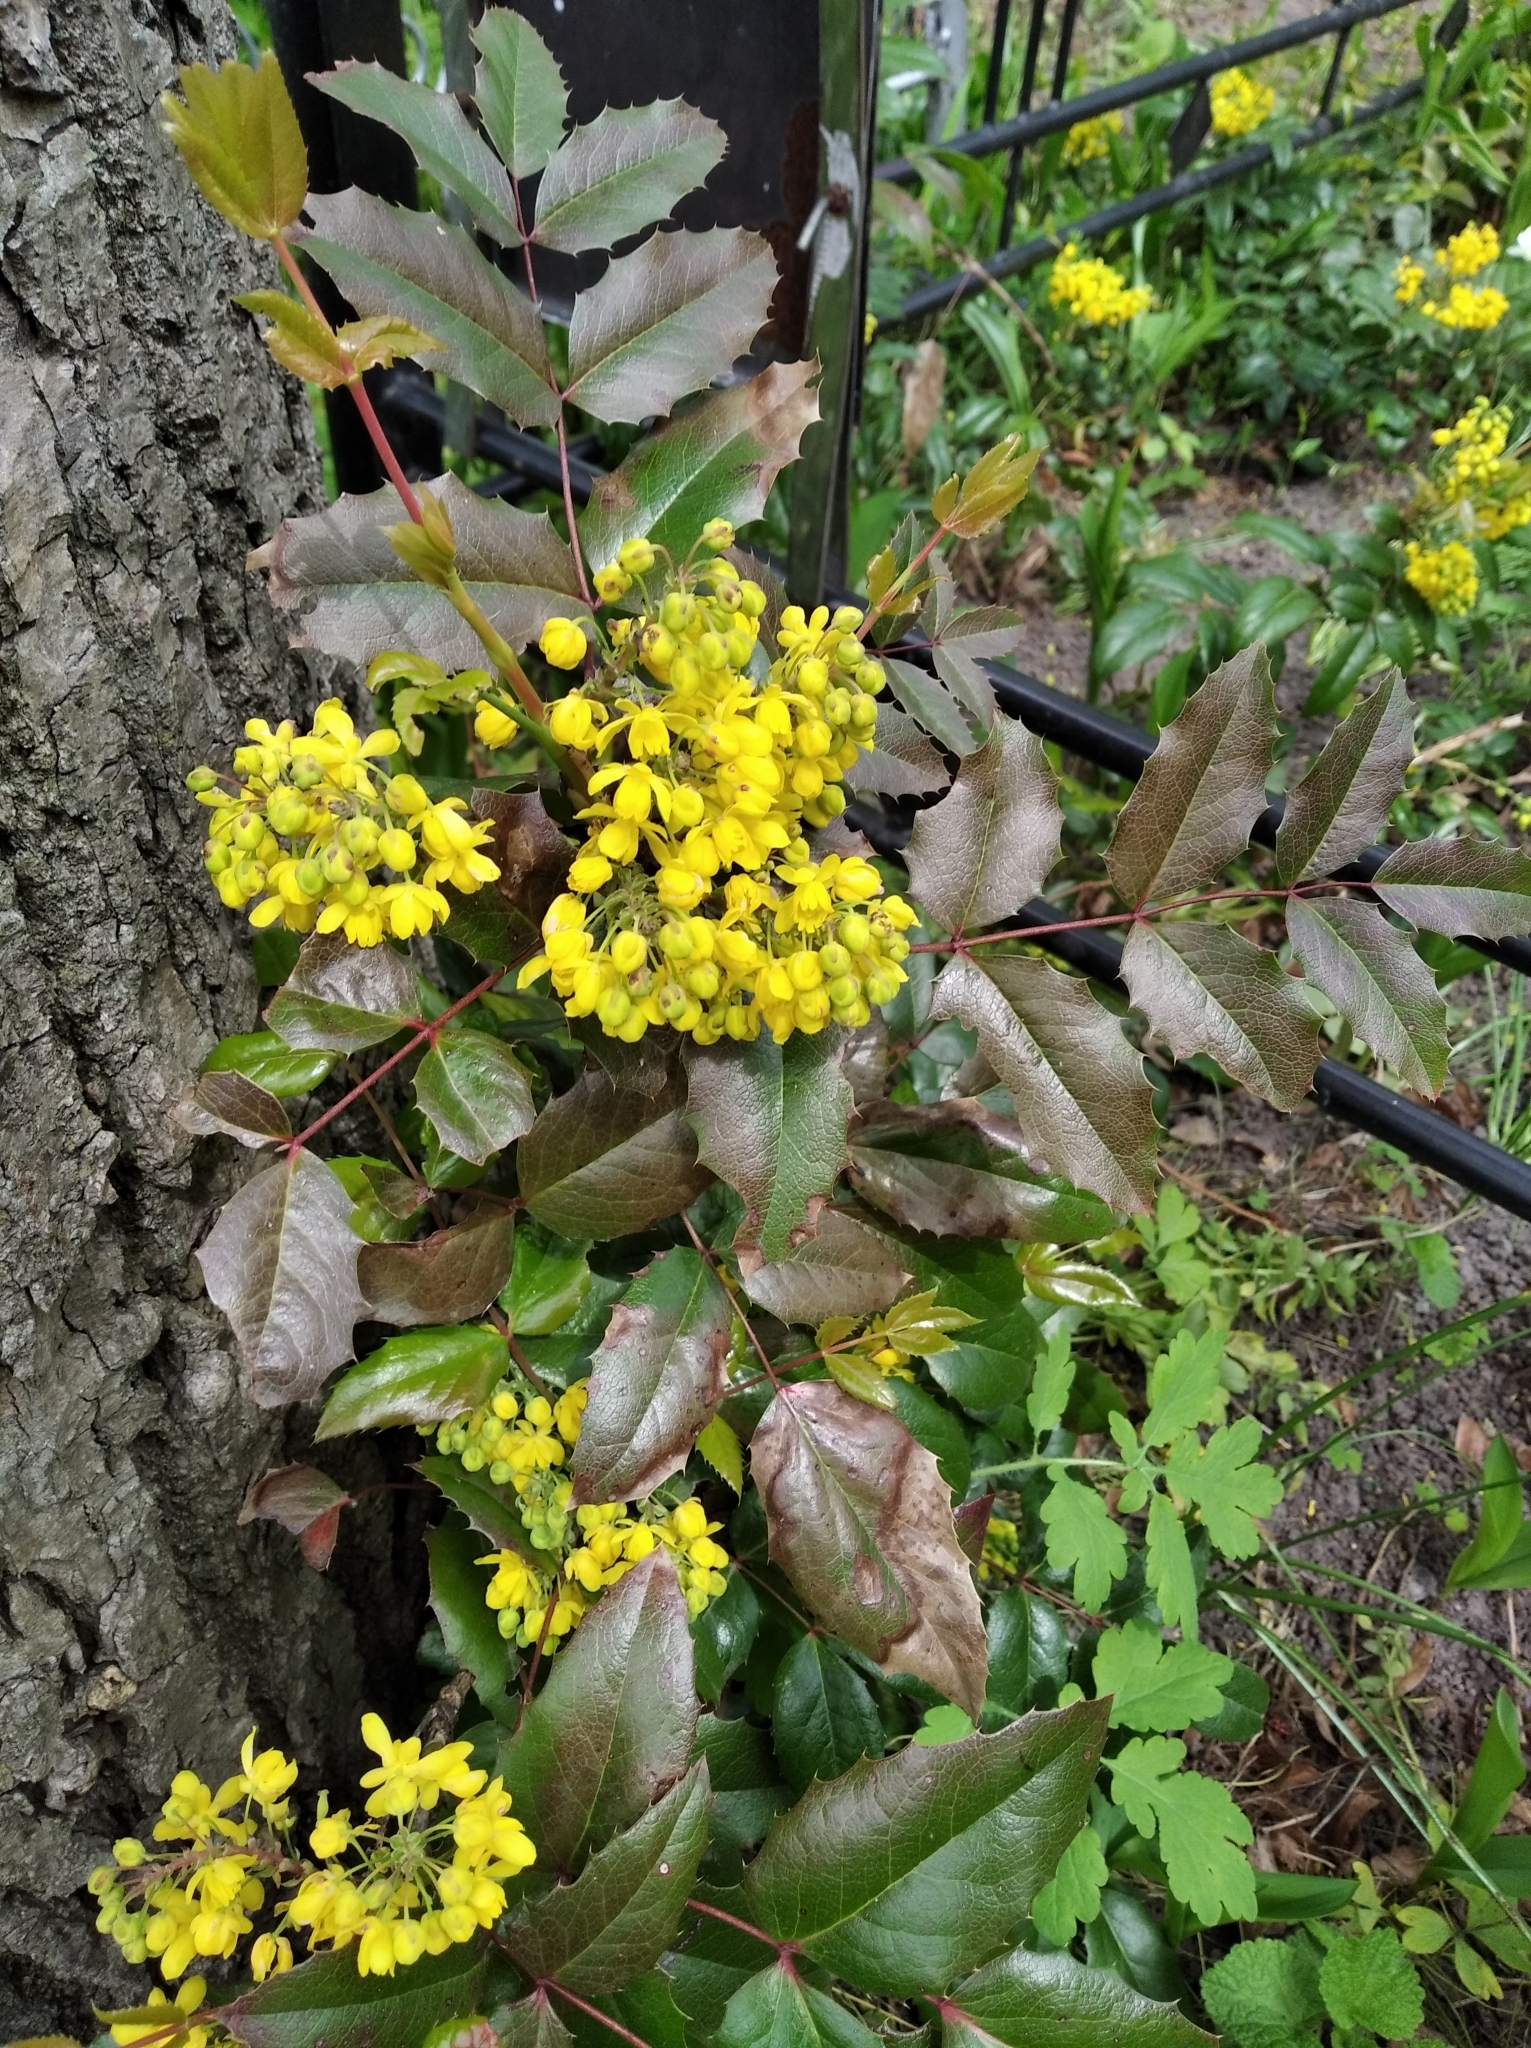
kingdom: Plantae
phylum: Tracheophyta
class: Magnoliopsida
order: Ranunculales
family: Berberidaceae
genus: Mahonia
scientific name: Mahonia aquifolium
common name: Oregon-grape
